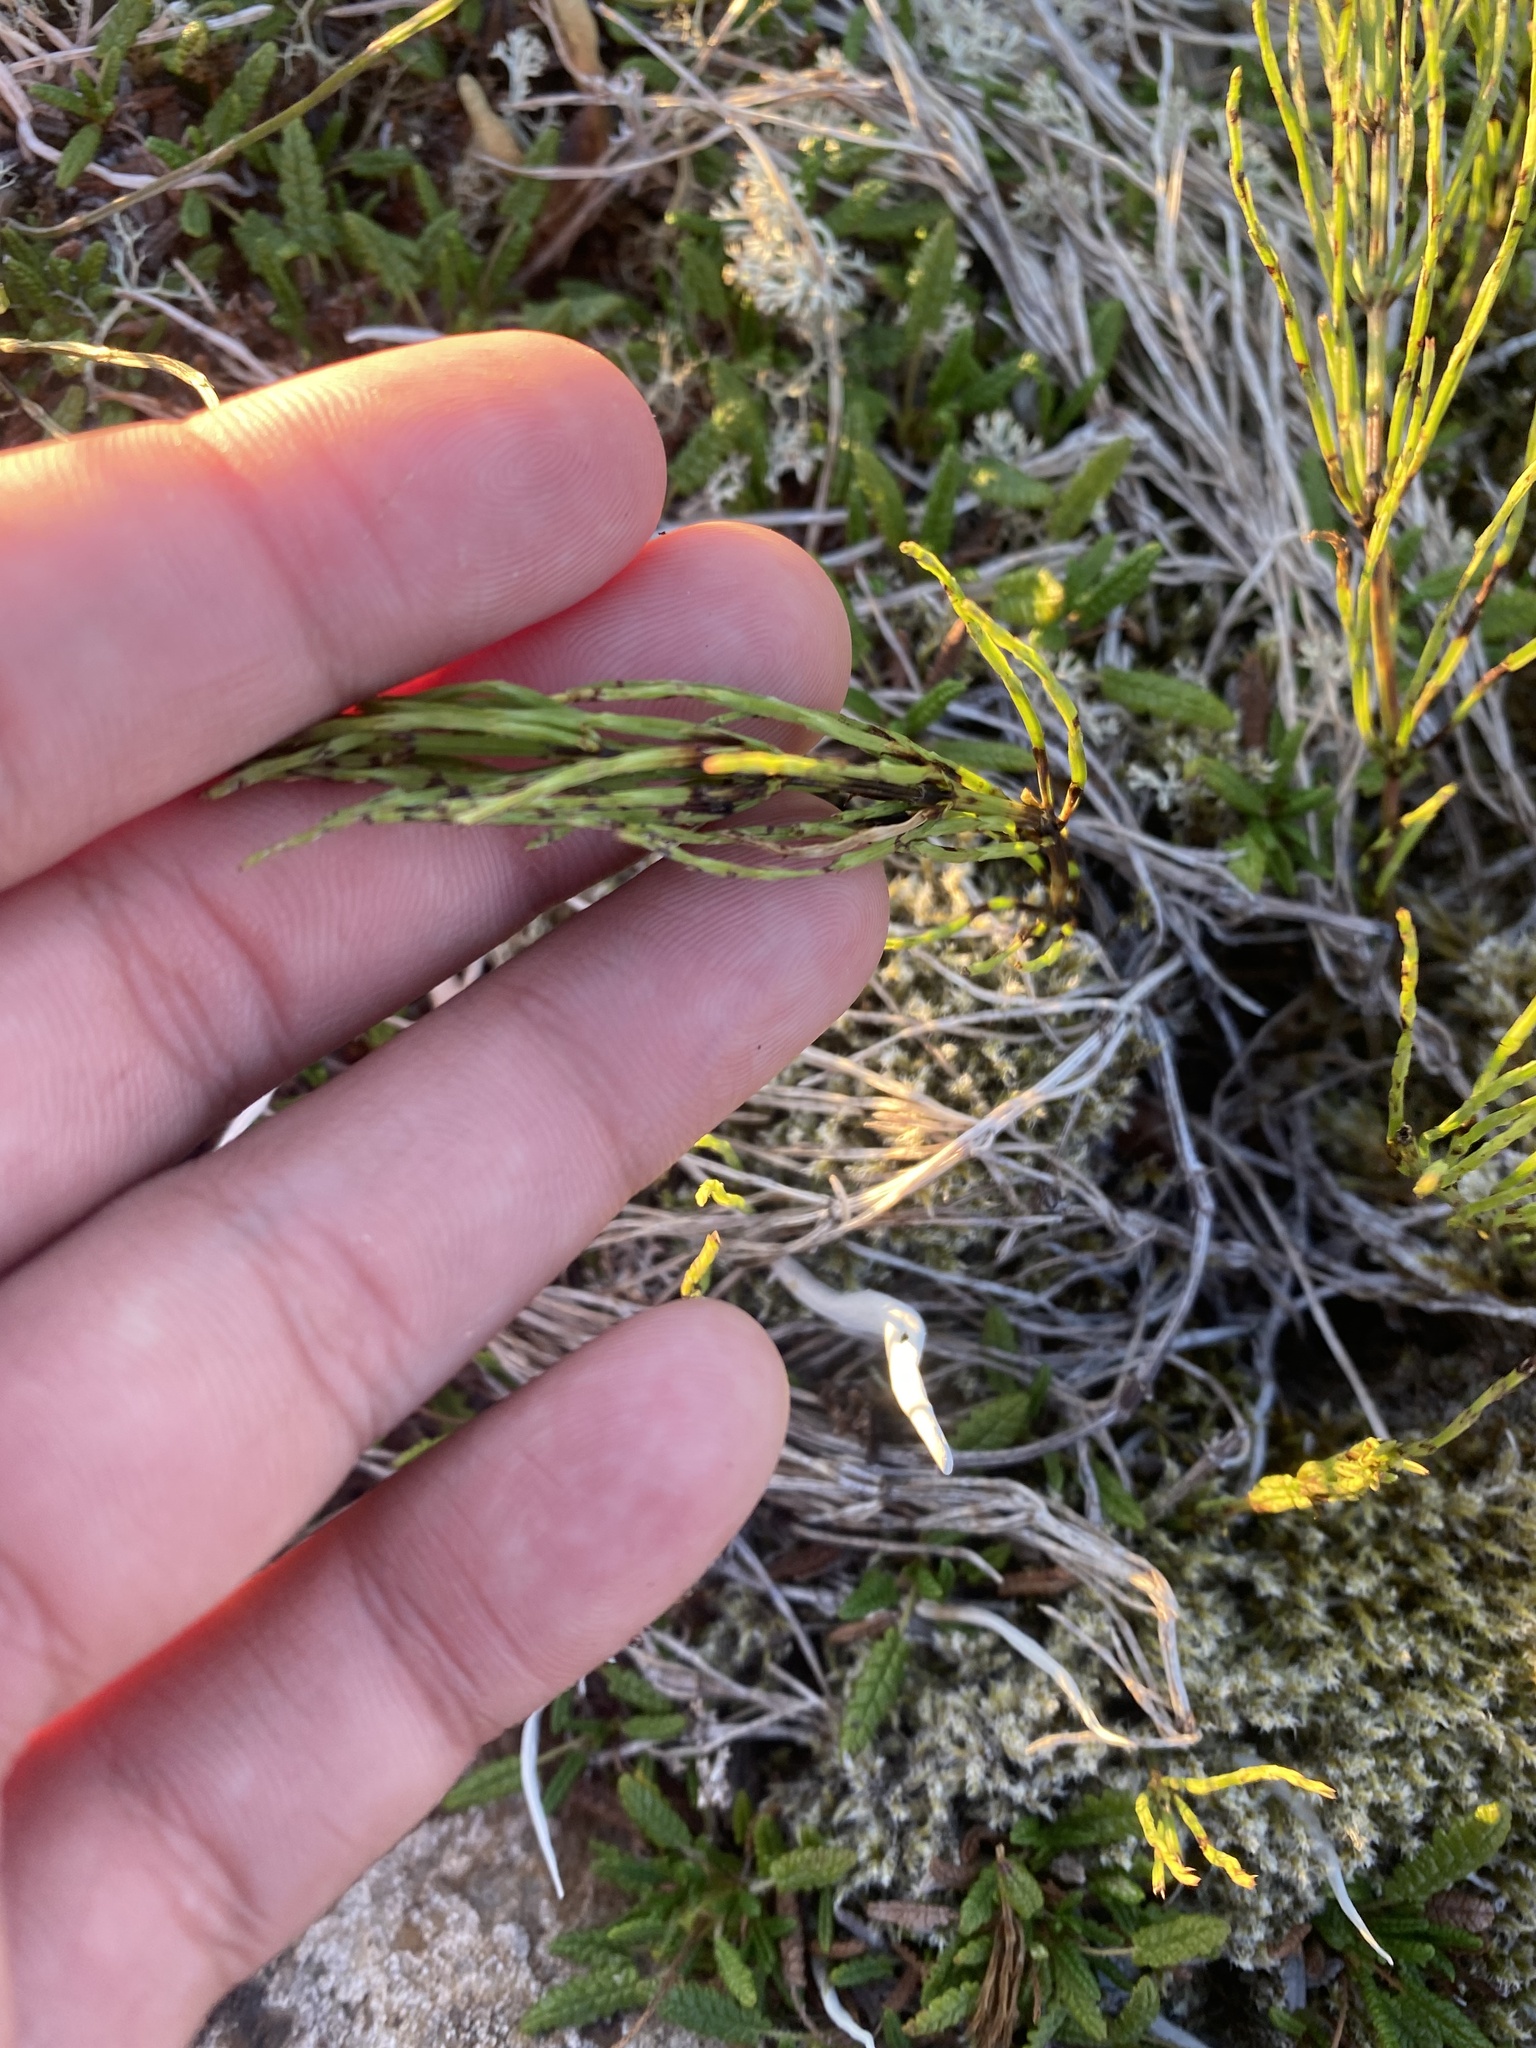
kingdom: Plantae
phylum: Tracheophyta
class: Polypodiopsida
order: Equisetales
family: Equisetaceae
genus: Equisetum
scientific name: Equisetum arvense
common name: Field horsetail
